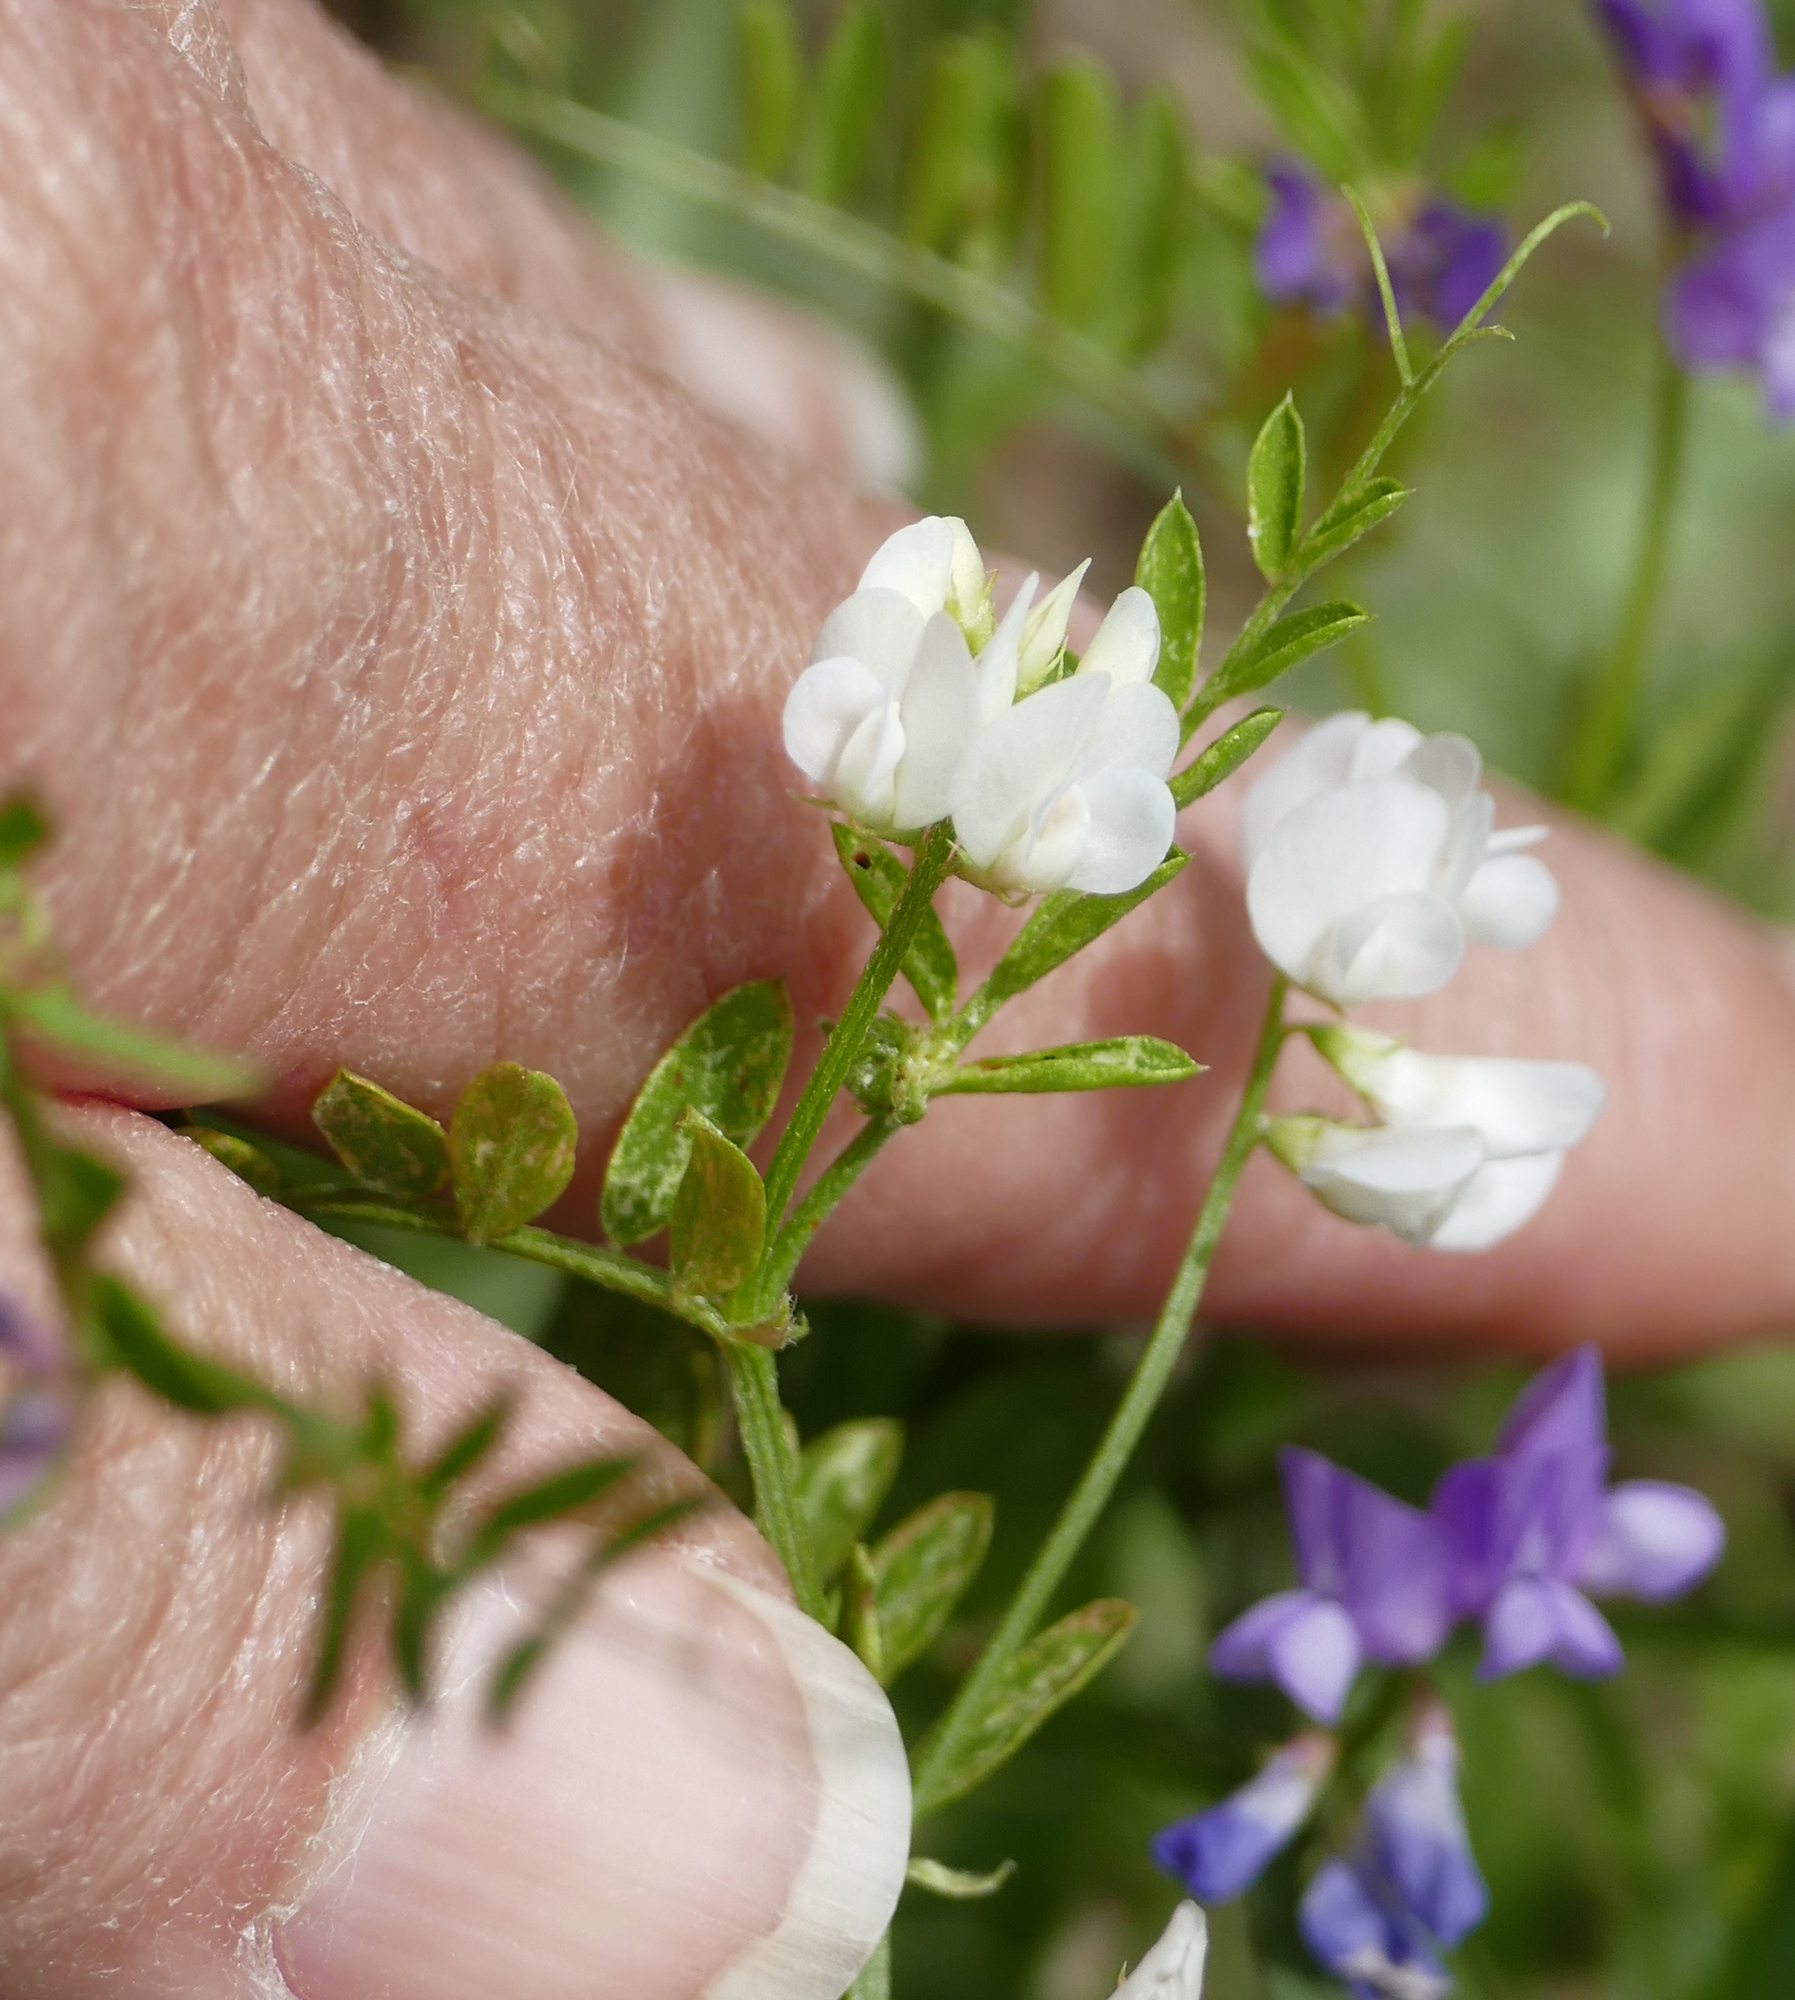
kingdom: Plantae
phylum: Tracheophyta
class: Magnoliopsida
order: Fabales
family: Fabaceae
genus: Vicia
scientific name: Vicia ludoviciana
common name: Louisiana vetch
